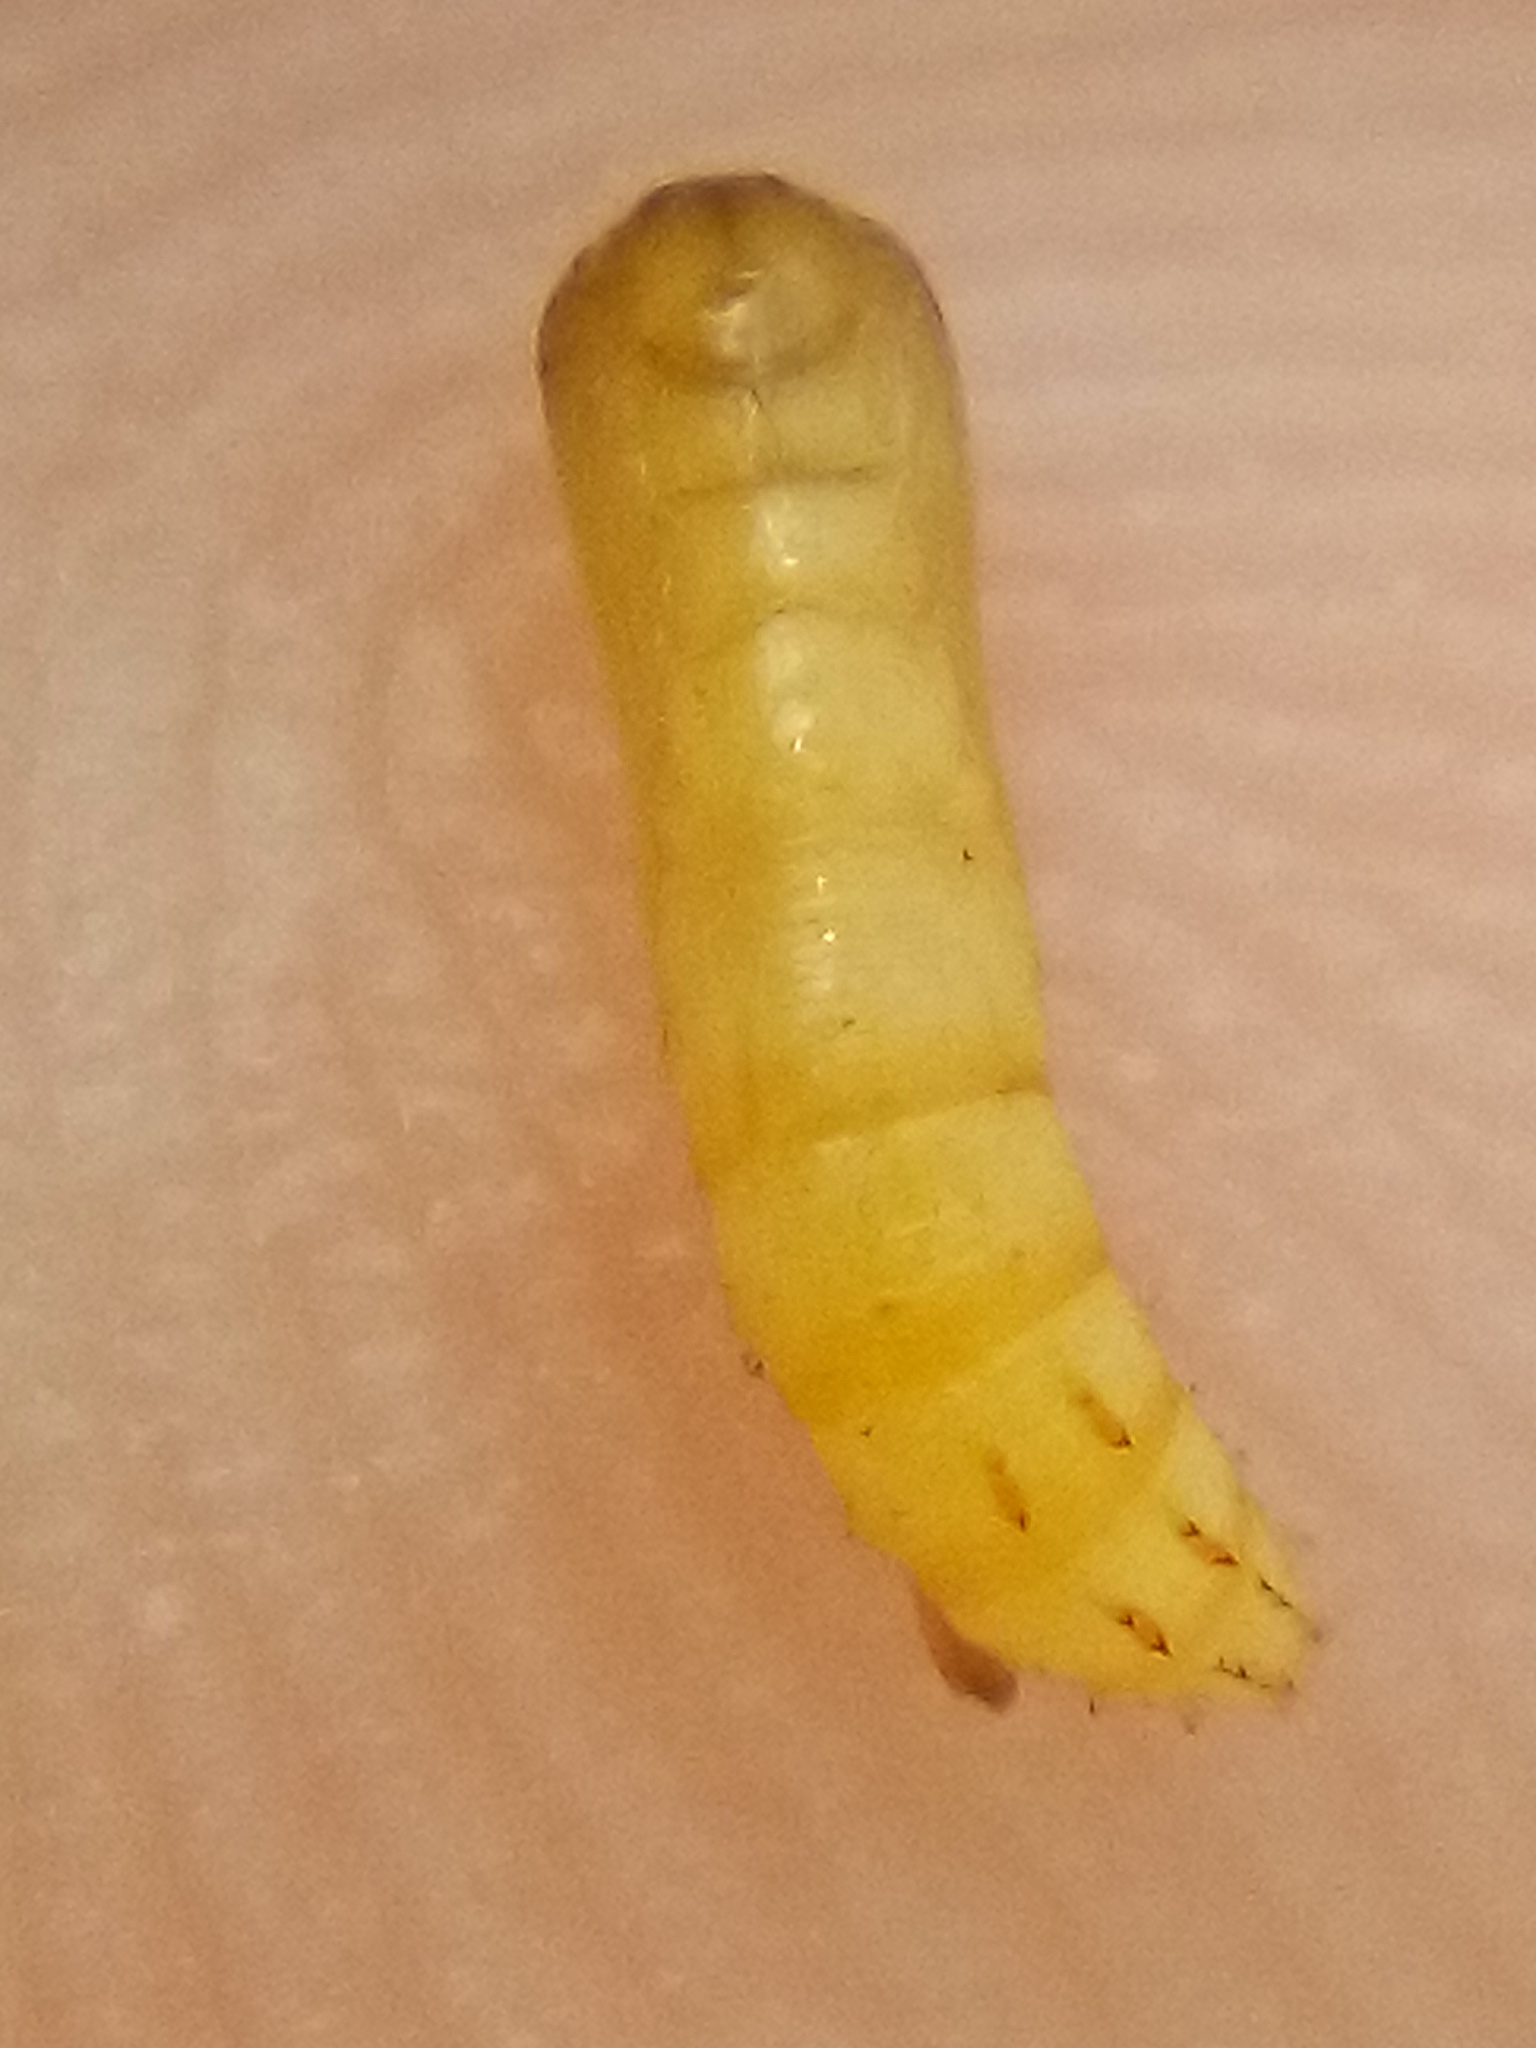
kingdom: Animalia
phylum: Arthropoda
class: Insecta
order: Lepidoptera
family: Pterophoridae
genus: Lantanophaga
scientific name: Lantanophaga pusillidactylus
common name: Moth
